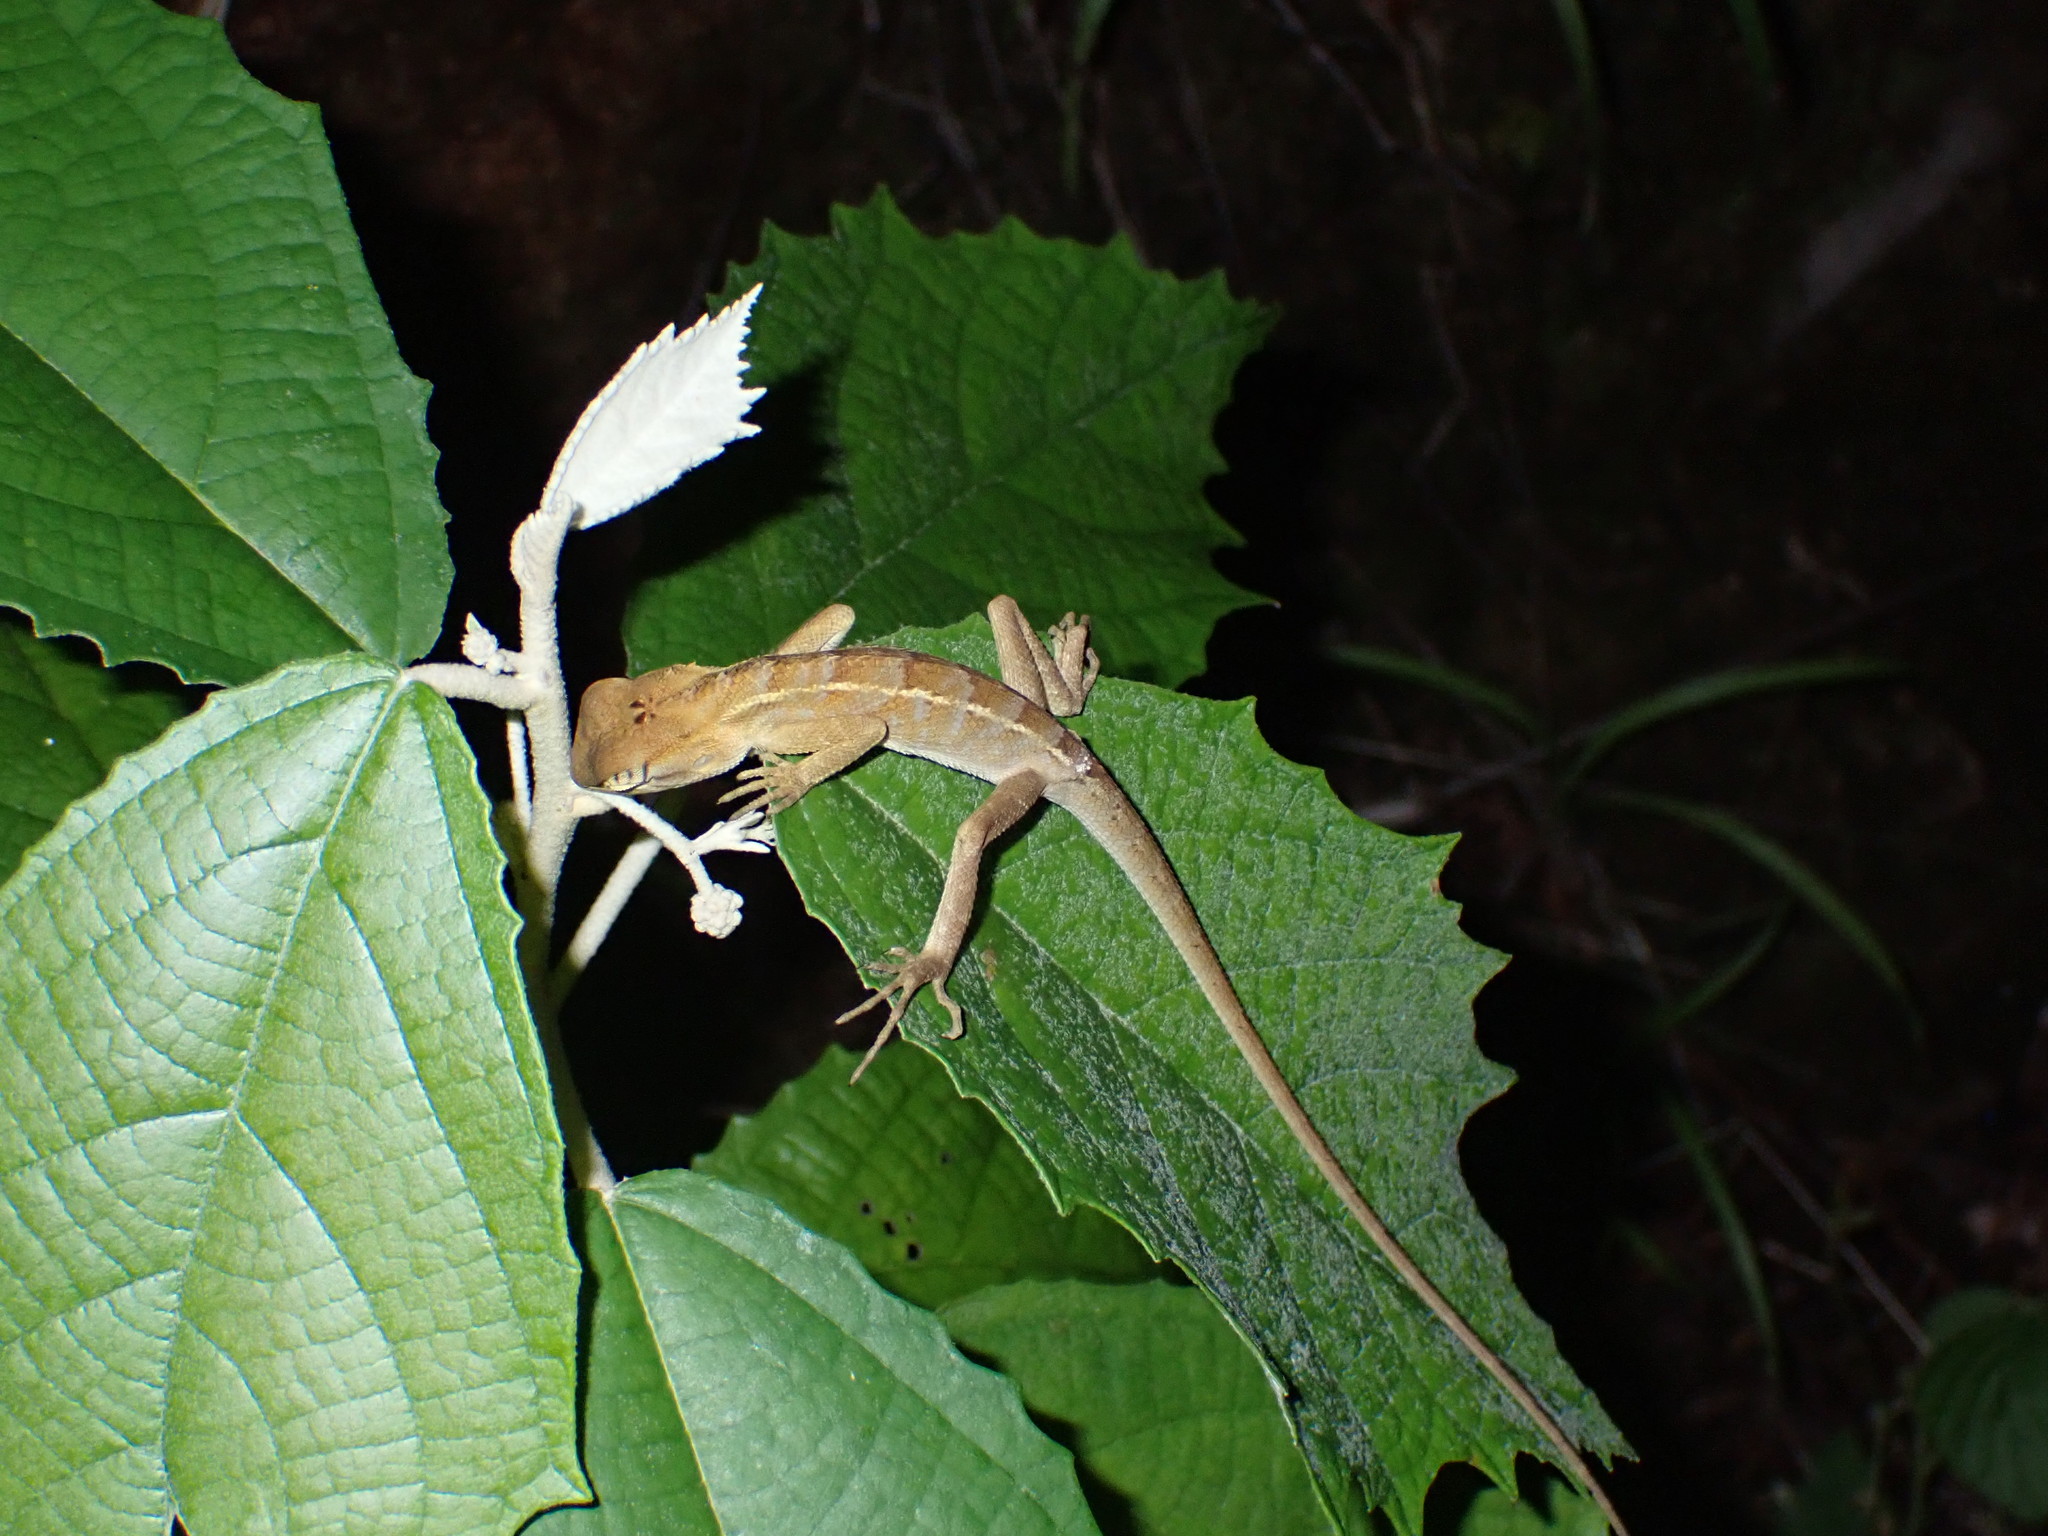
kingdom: Animalia
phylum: Chordata
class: Squamata
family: Agamidae
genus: Calotes
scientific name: Calotes versicolor
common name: Oriental garden lizard
